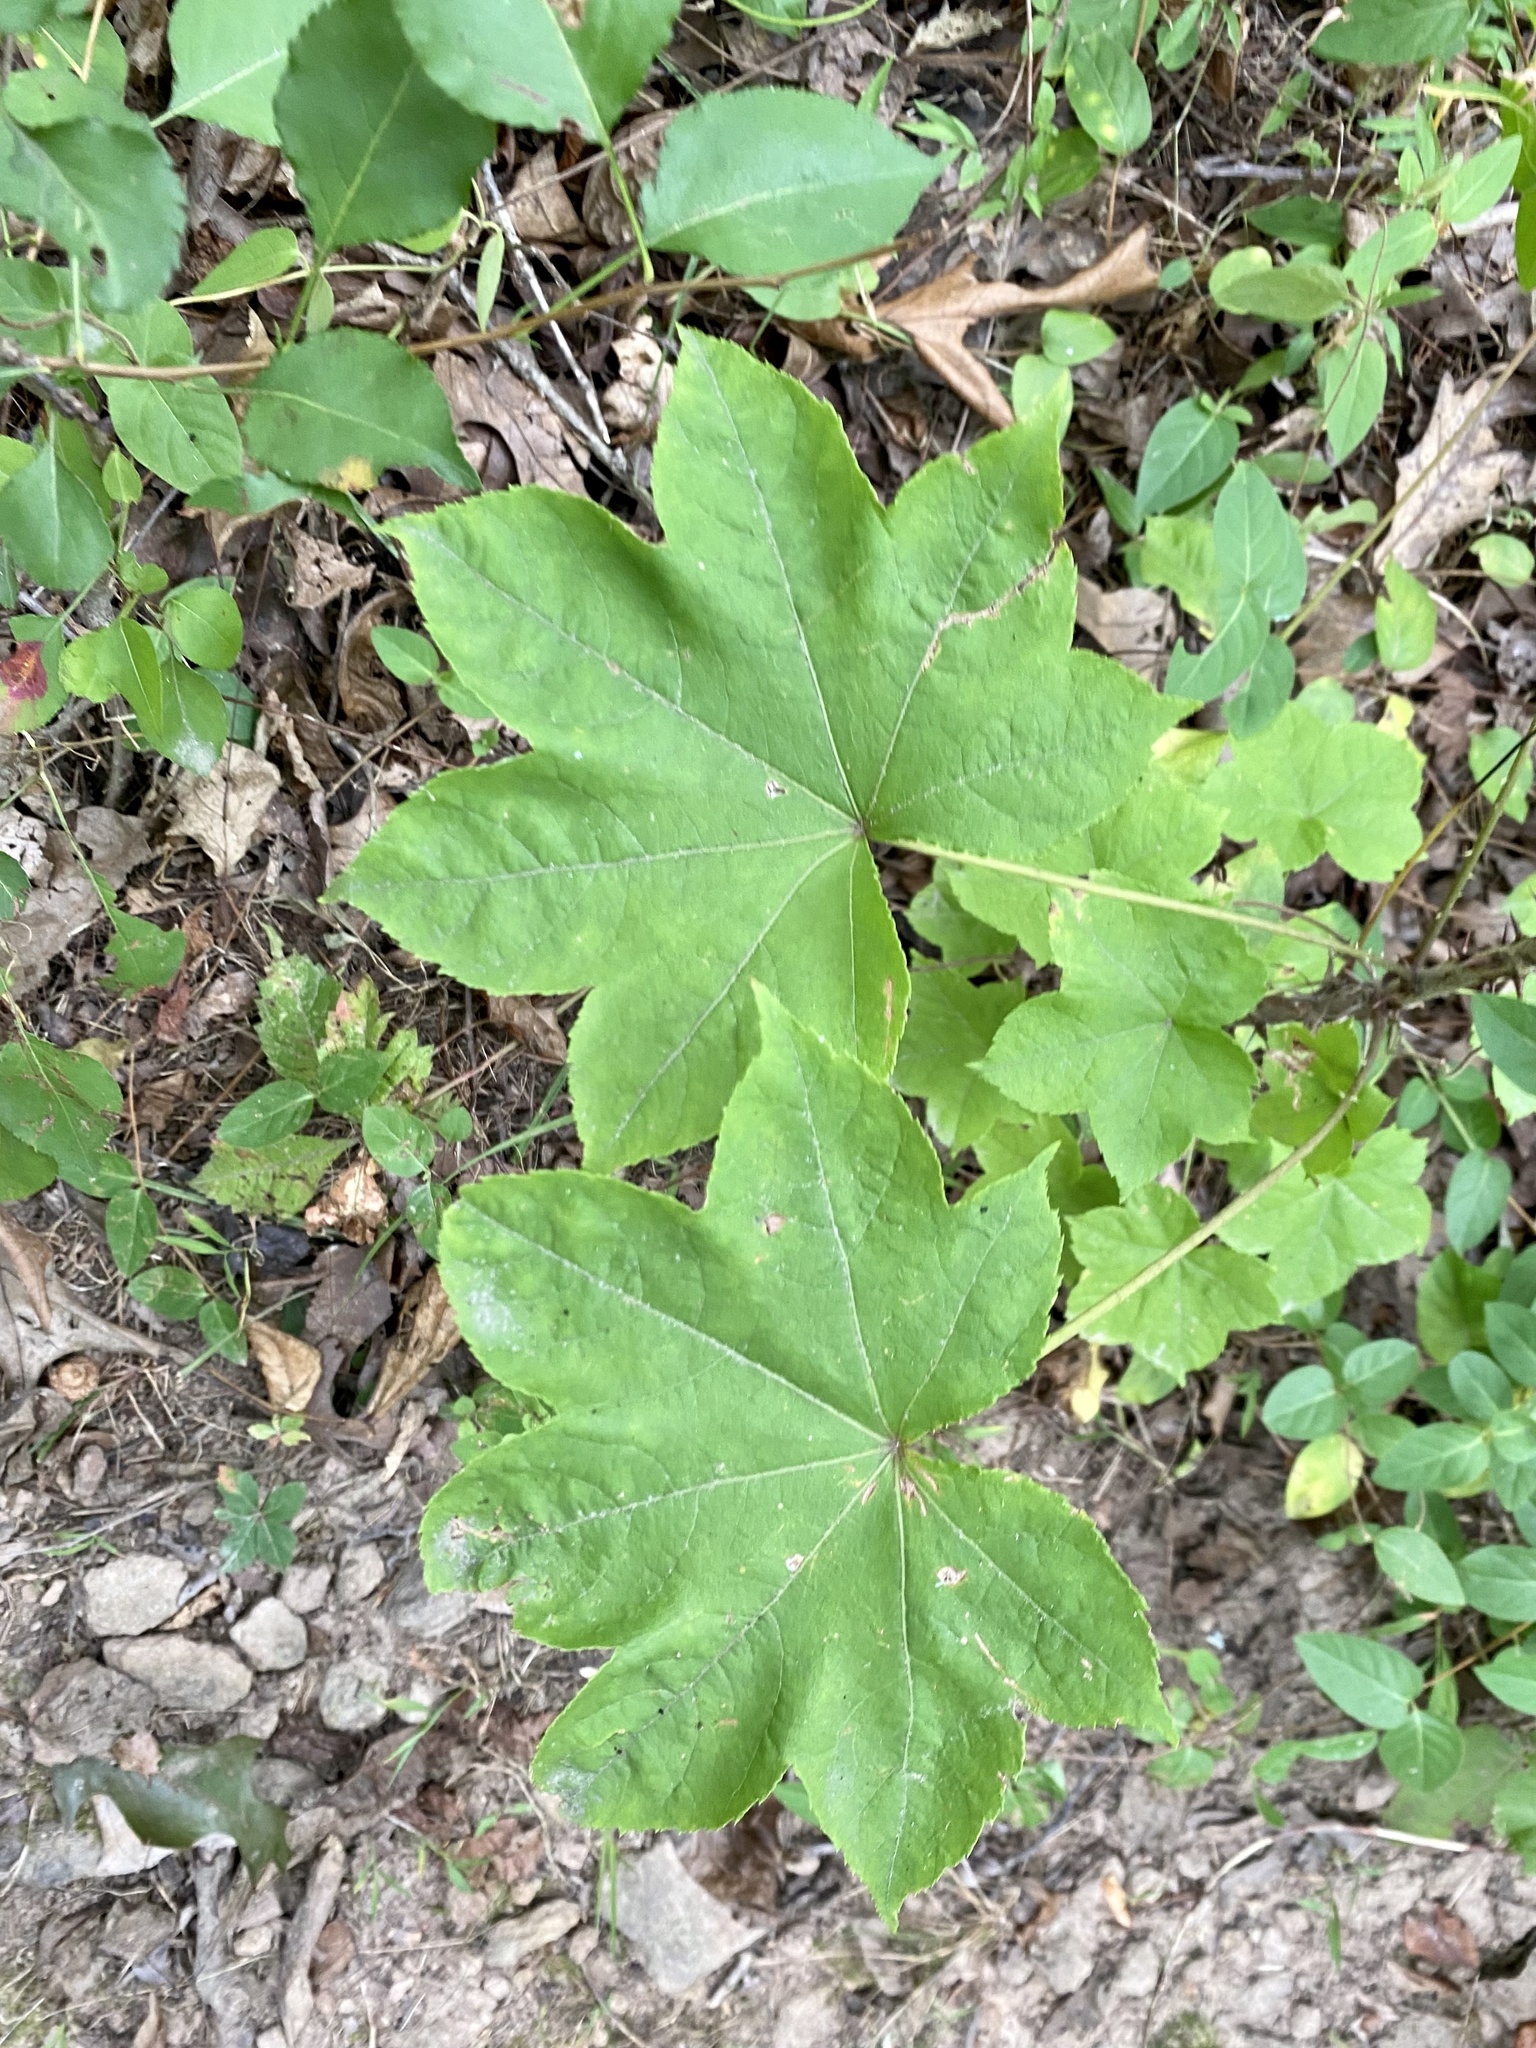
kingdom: Plantae
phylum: Tracheophyta
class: Magnoliopsida
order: Apiales
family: Araliaceae
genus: Kalopanax
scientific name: Kalopanax septemlobus
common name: Castor aralia
